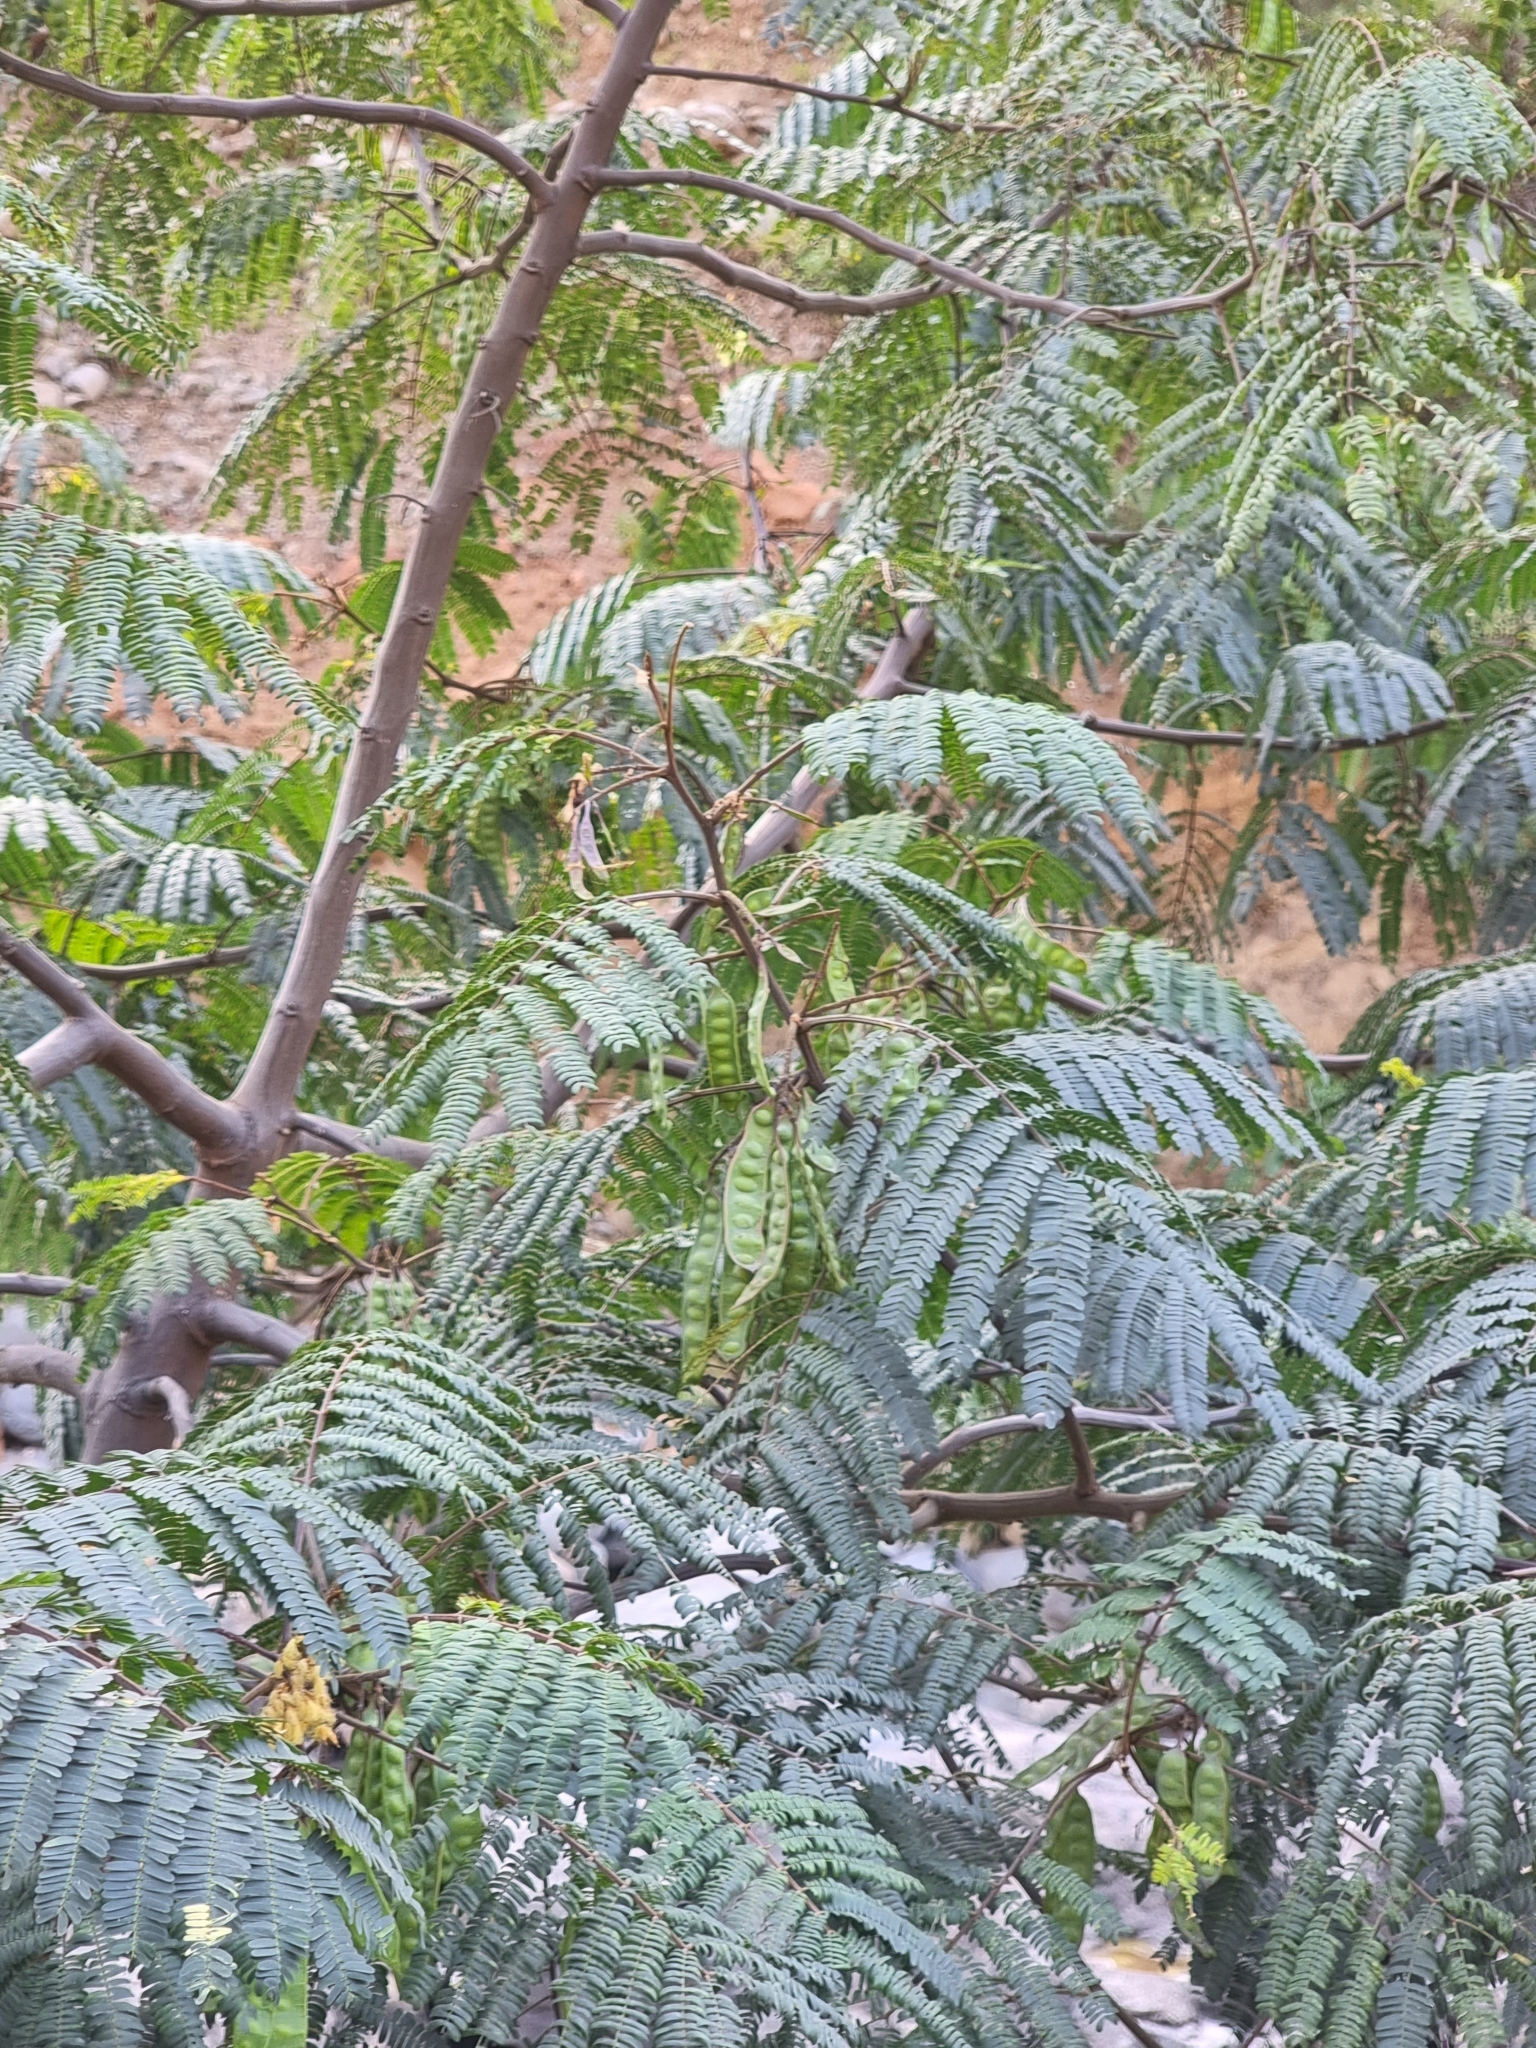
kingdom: Plantae
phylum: Tracheophyta
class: Magnoliopsida
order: Fabales
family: Fabaceae
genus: Paraserianthes
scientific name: Paraserianthes lophantha
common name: Plume albizia
